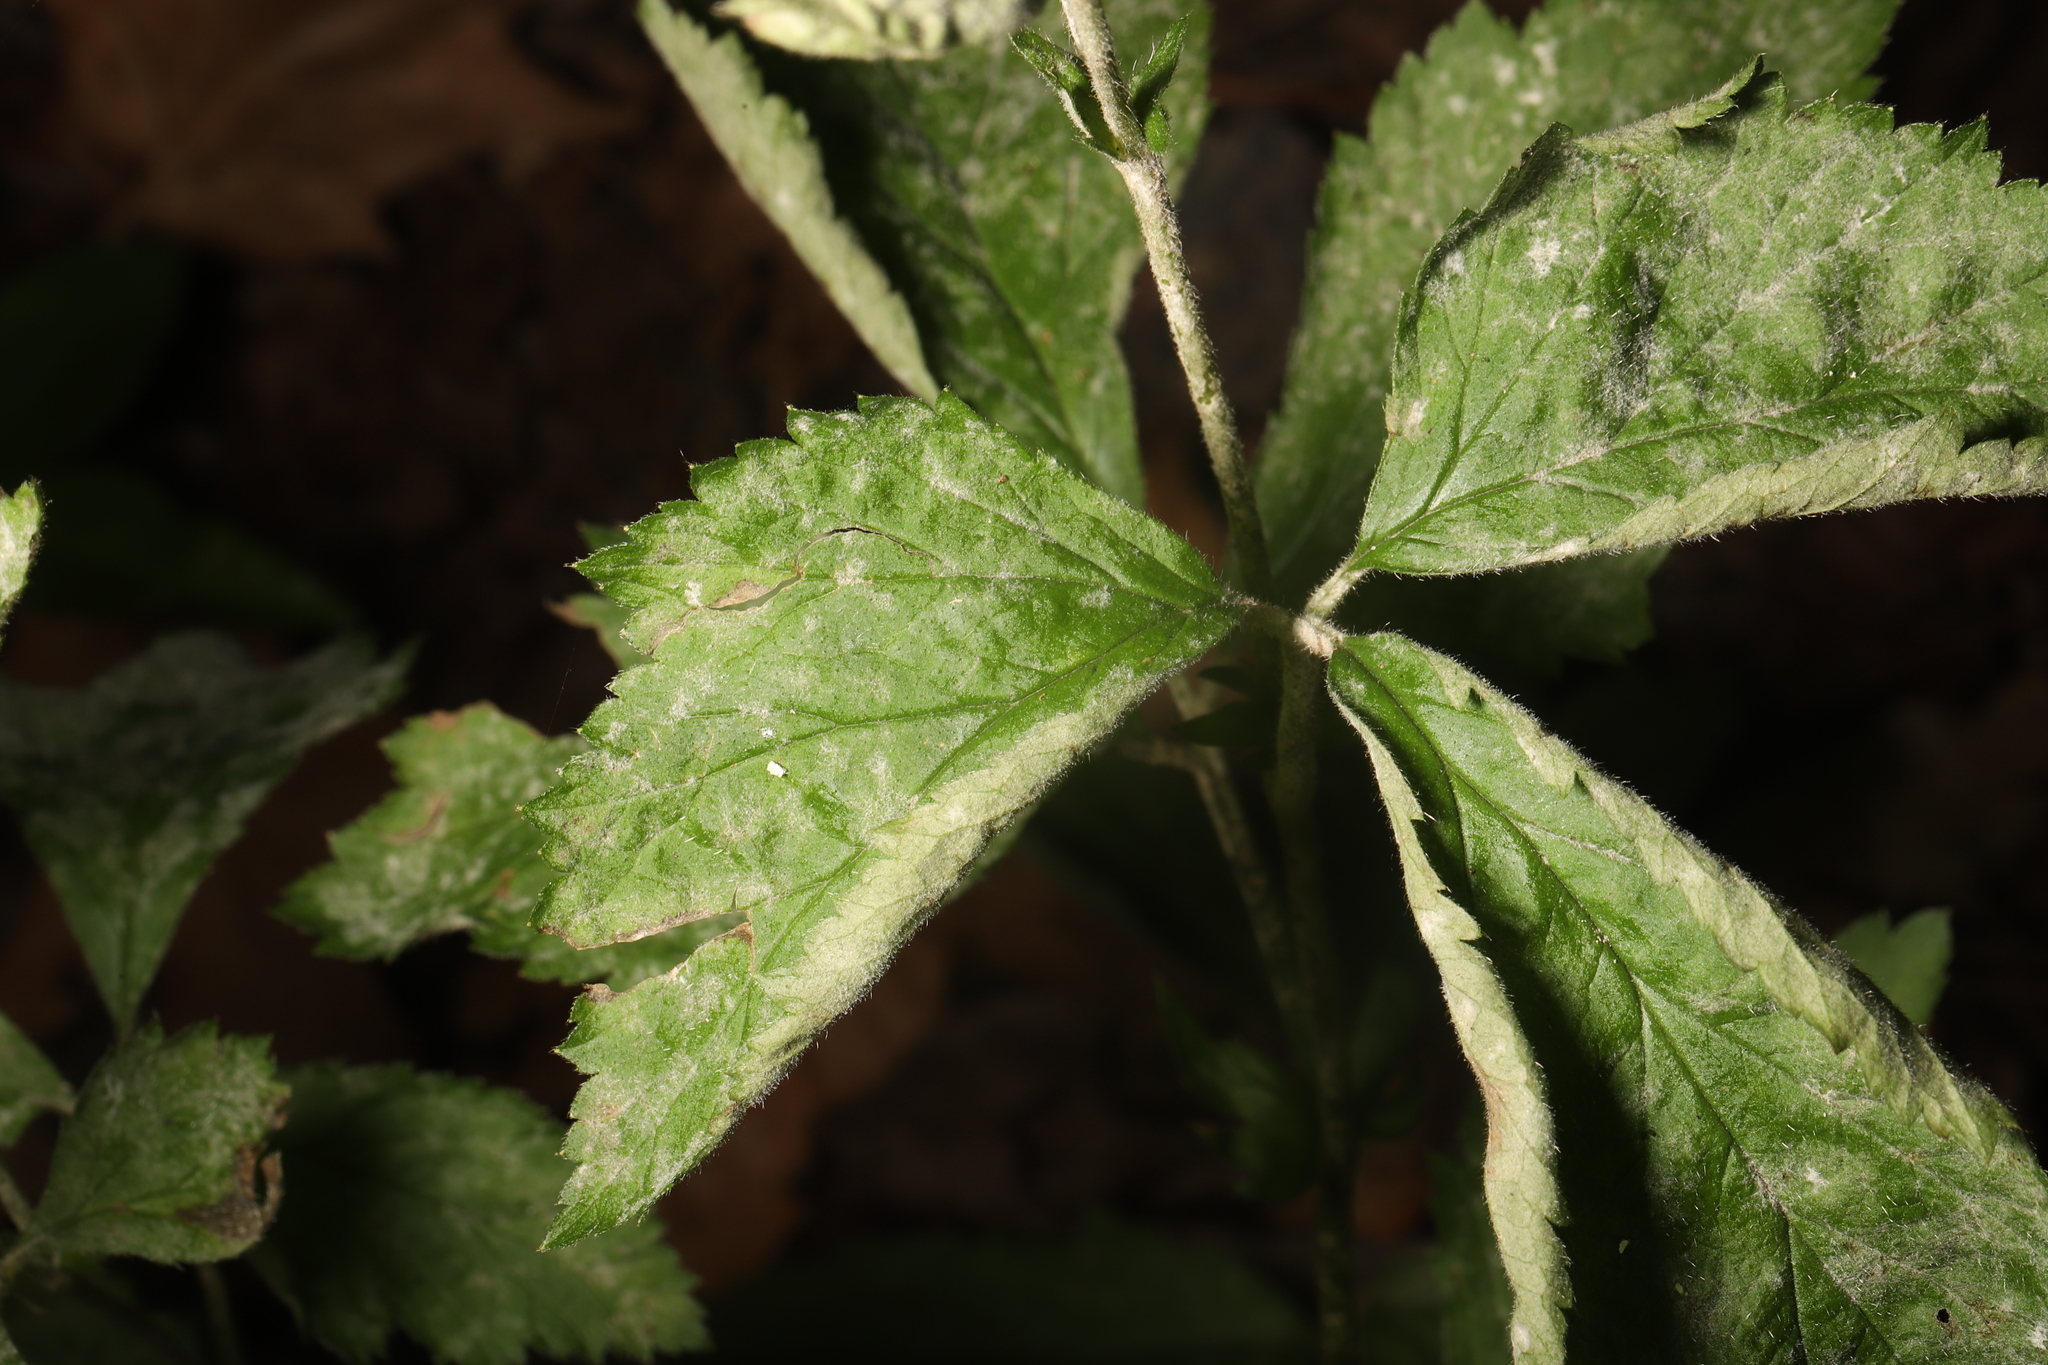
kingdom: Fungi
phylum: Ascomycota
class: Leotiomycetes
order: Helotiales
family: Erysiphaceae
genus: Podosphaera
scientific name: Podosphaera aphanis
